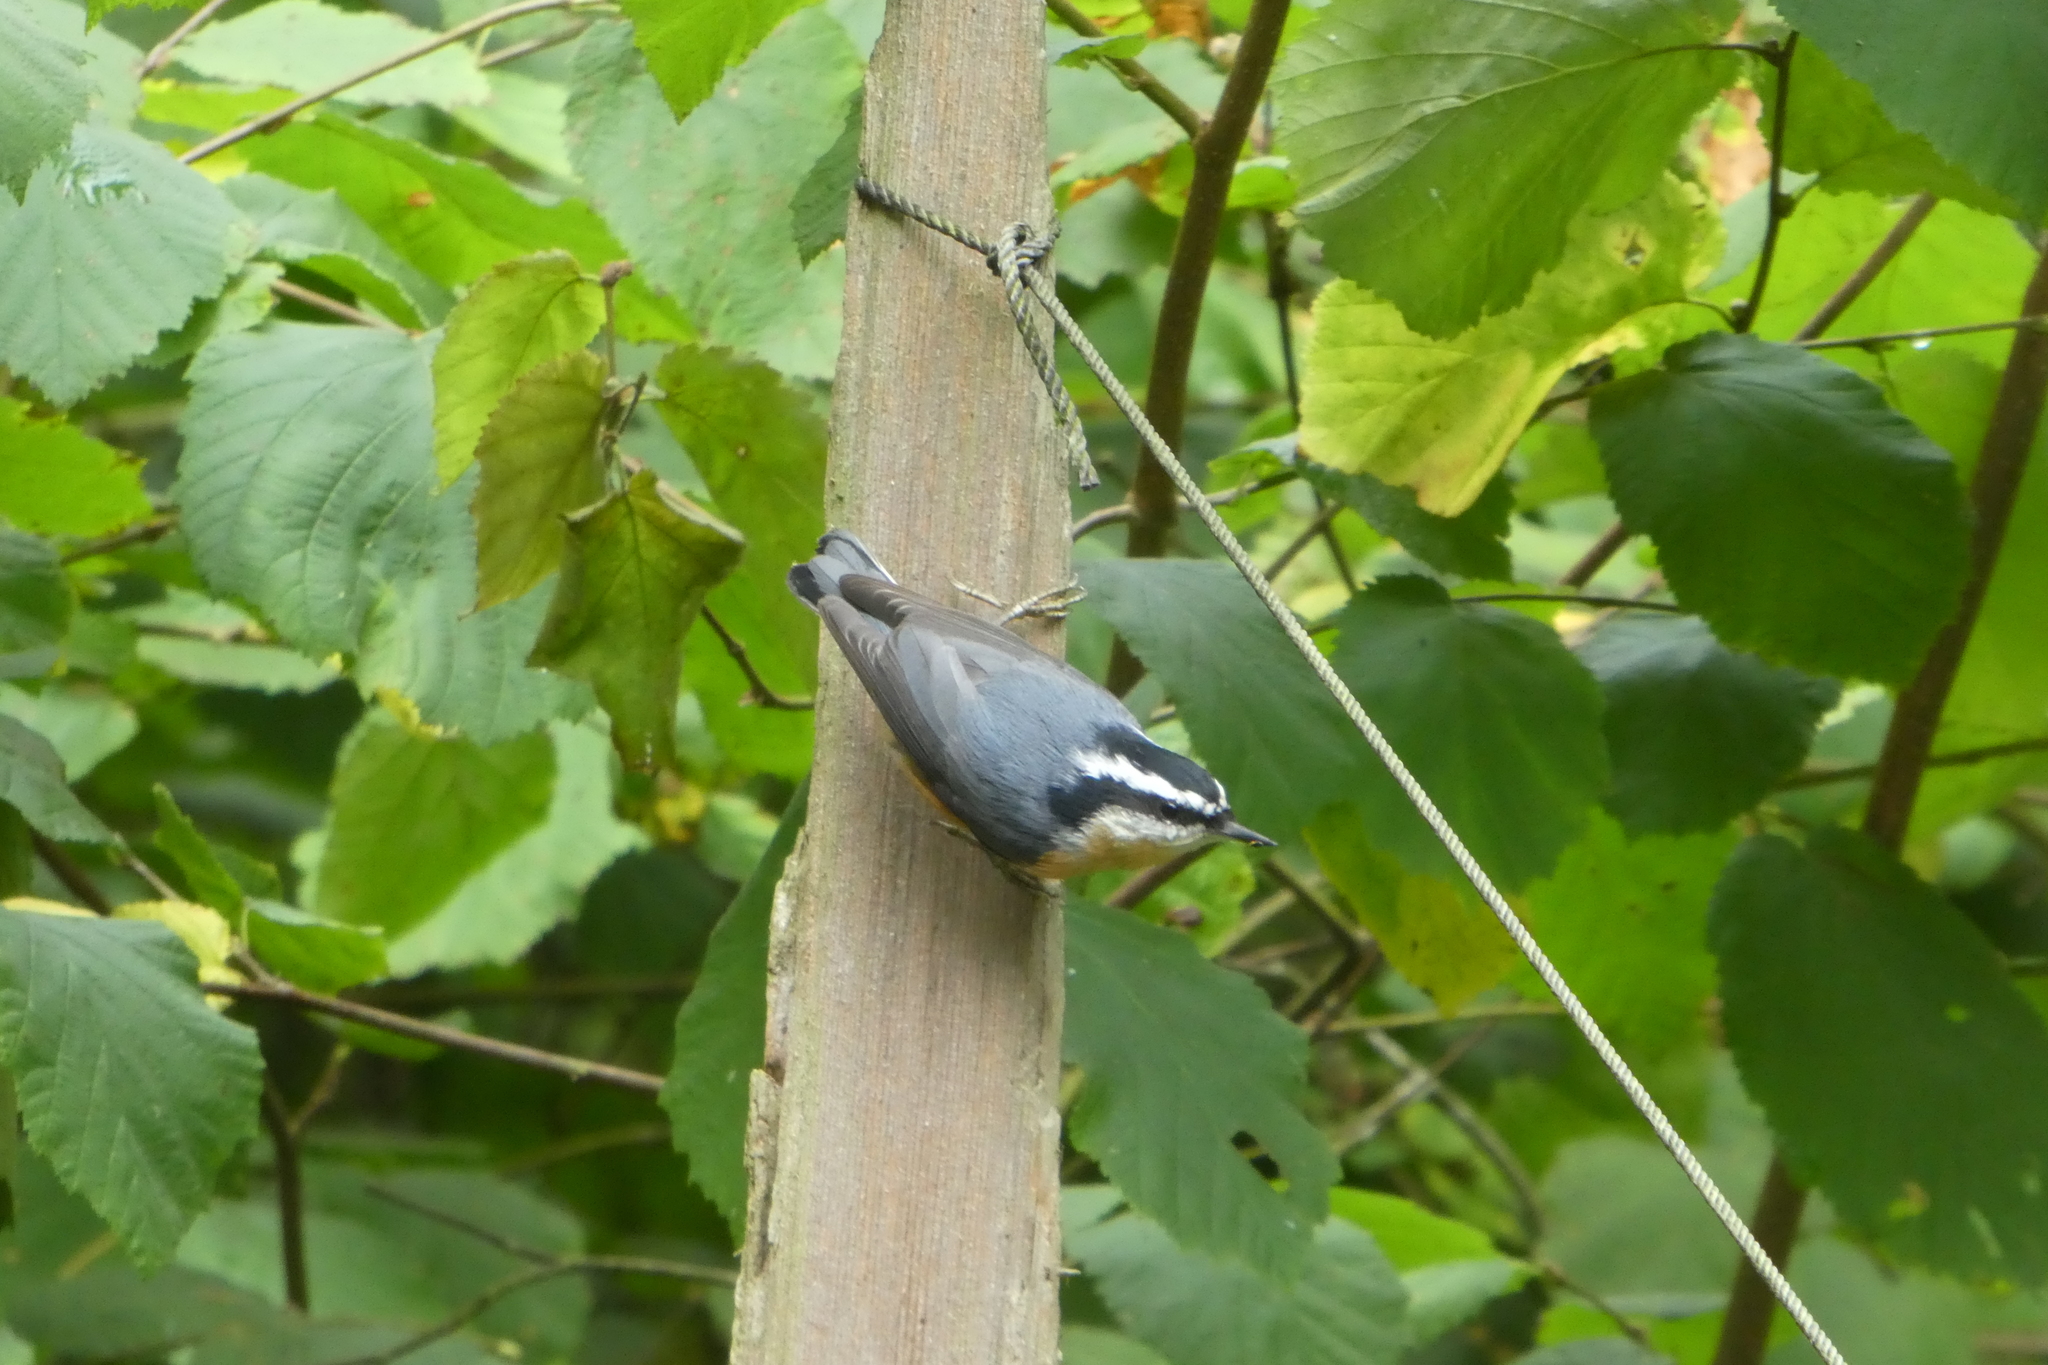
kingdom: Animalia
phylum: Chordata
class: Aves
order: Passeriformes
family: Sittidae
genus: Sitta
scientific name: Sitta canadensis
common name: Red-breasted nuthatch
